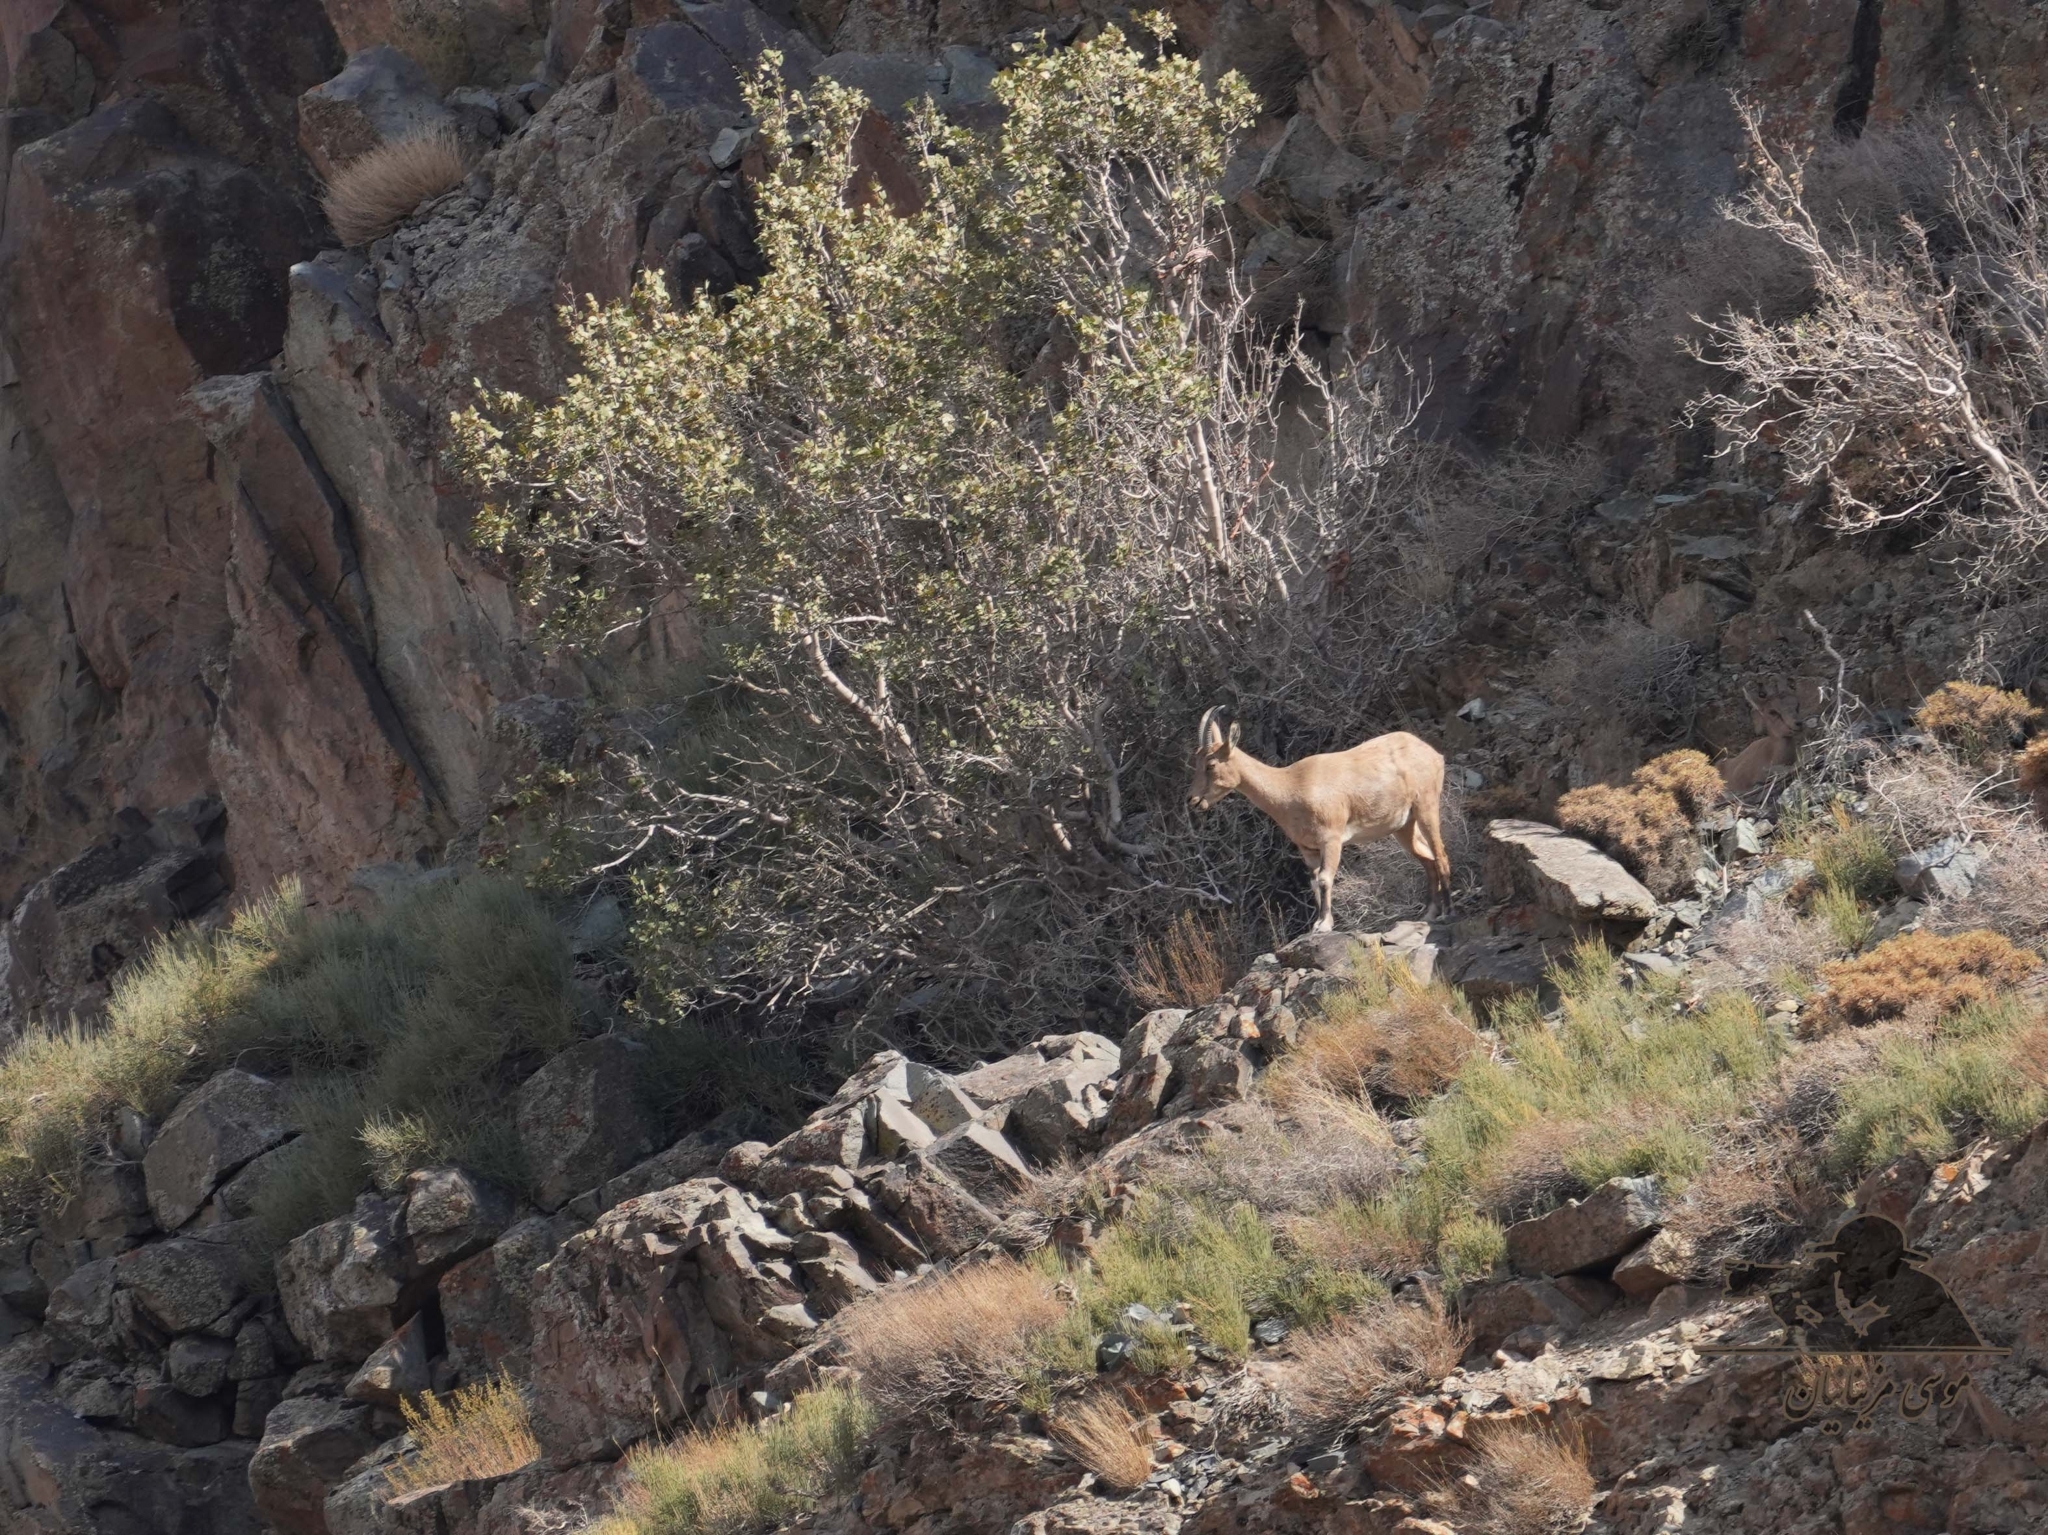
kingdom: Animalia
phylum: Chordata
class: Mammalia
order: Artiodactyla
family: Bovidae
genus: Capra
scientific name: Capra hircus
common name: Domestic goat
